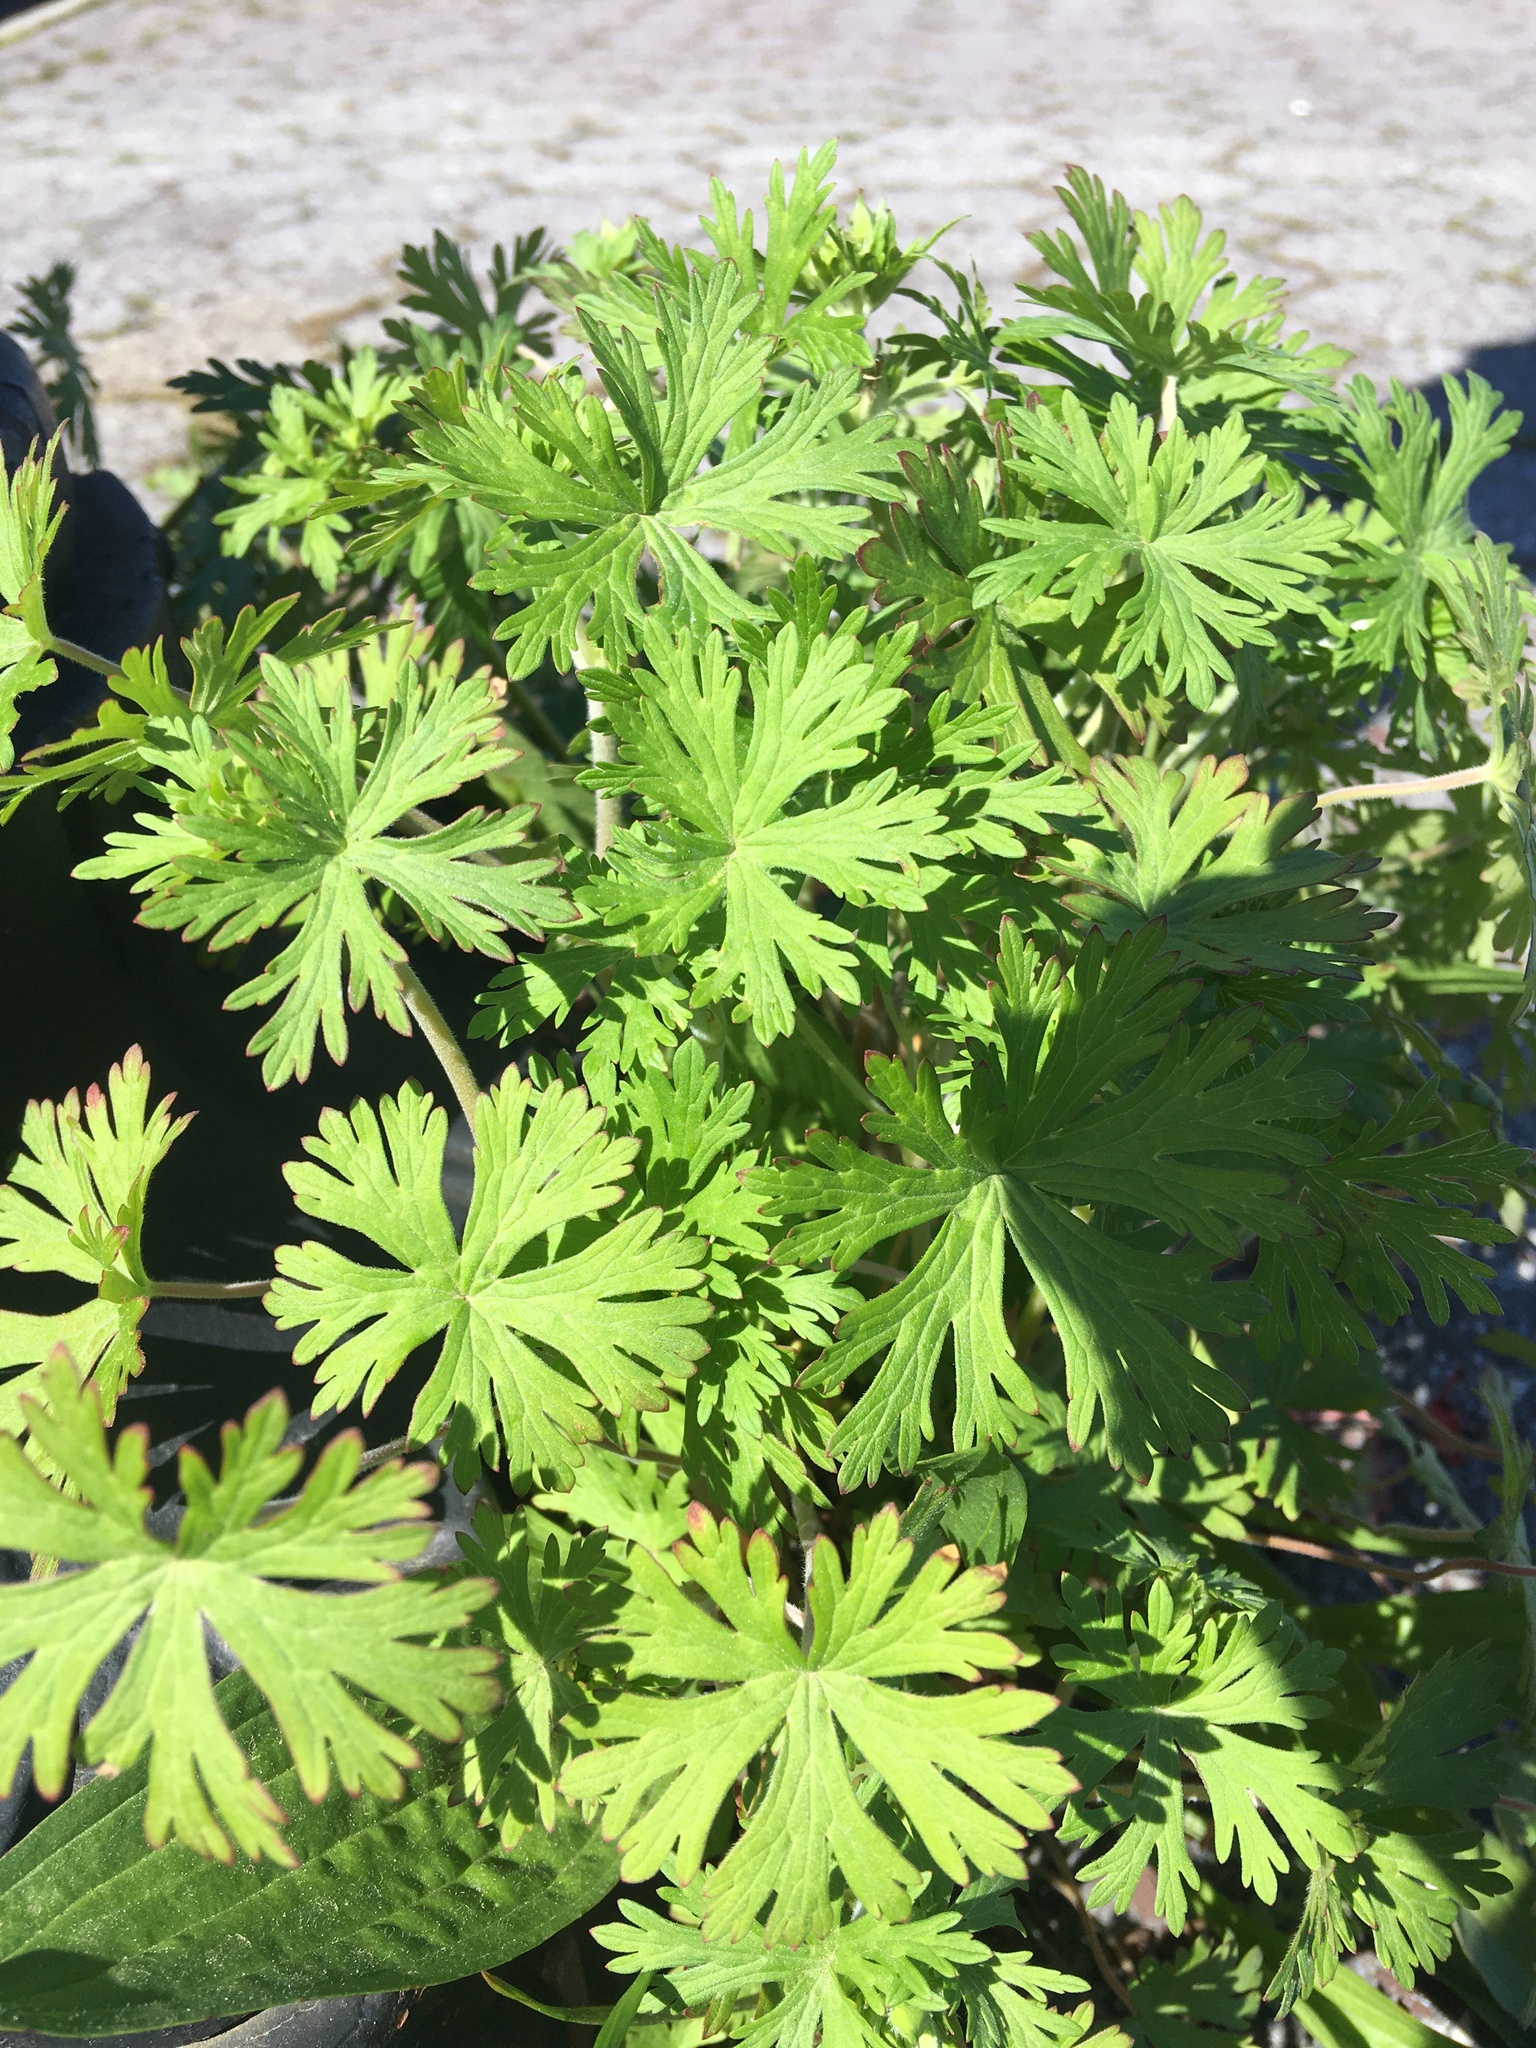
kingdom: Plantae
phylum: Tracheophyta
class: Magnoliopsida
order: Geraniales
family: Geraniaceae
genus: Geranium
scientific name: Geranium carolinianum
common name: Carolina crane's-bill
